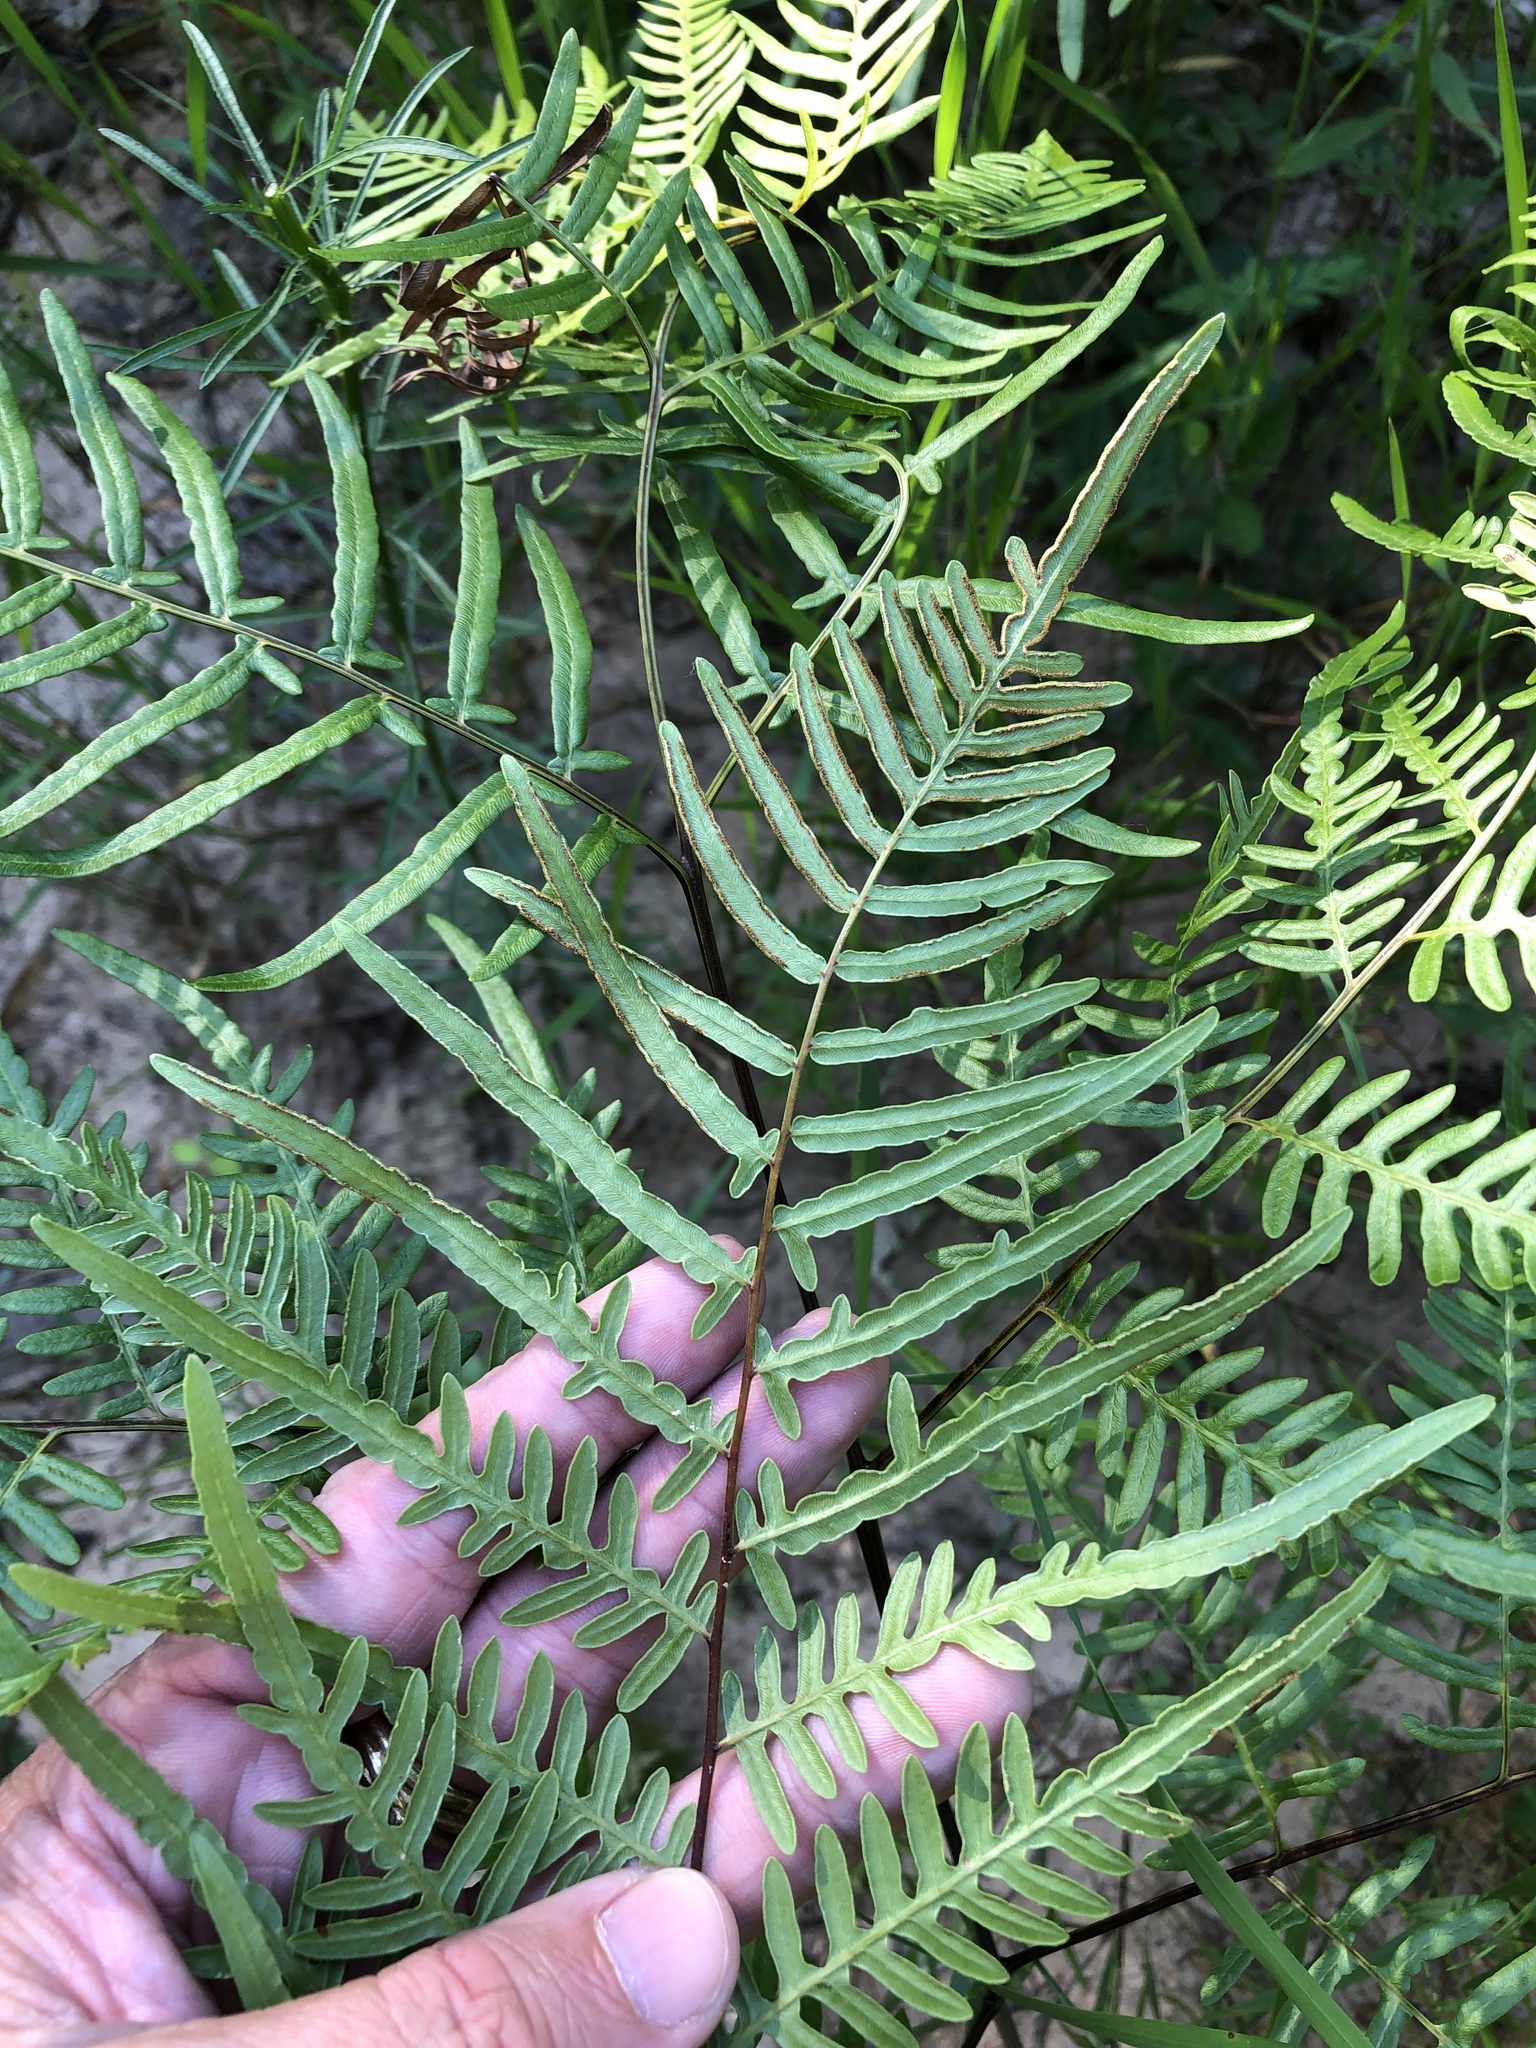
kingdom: Plantae
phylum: Tracheophyta
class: Polypodiopsida
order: Polypodiales
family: Dennstaedtiaceae
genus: Pteridium
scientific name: Pteridium
